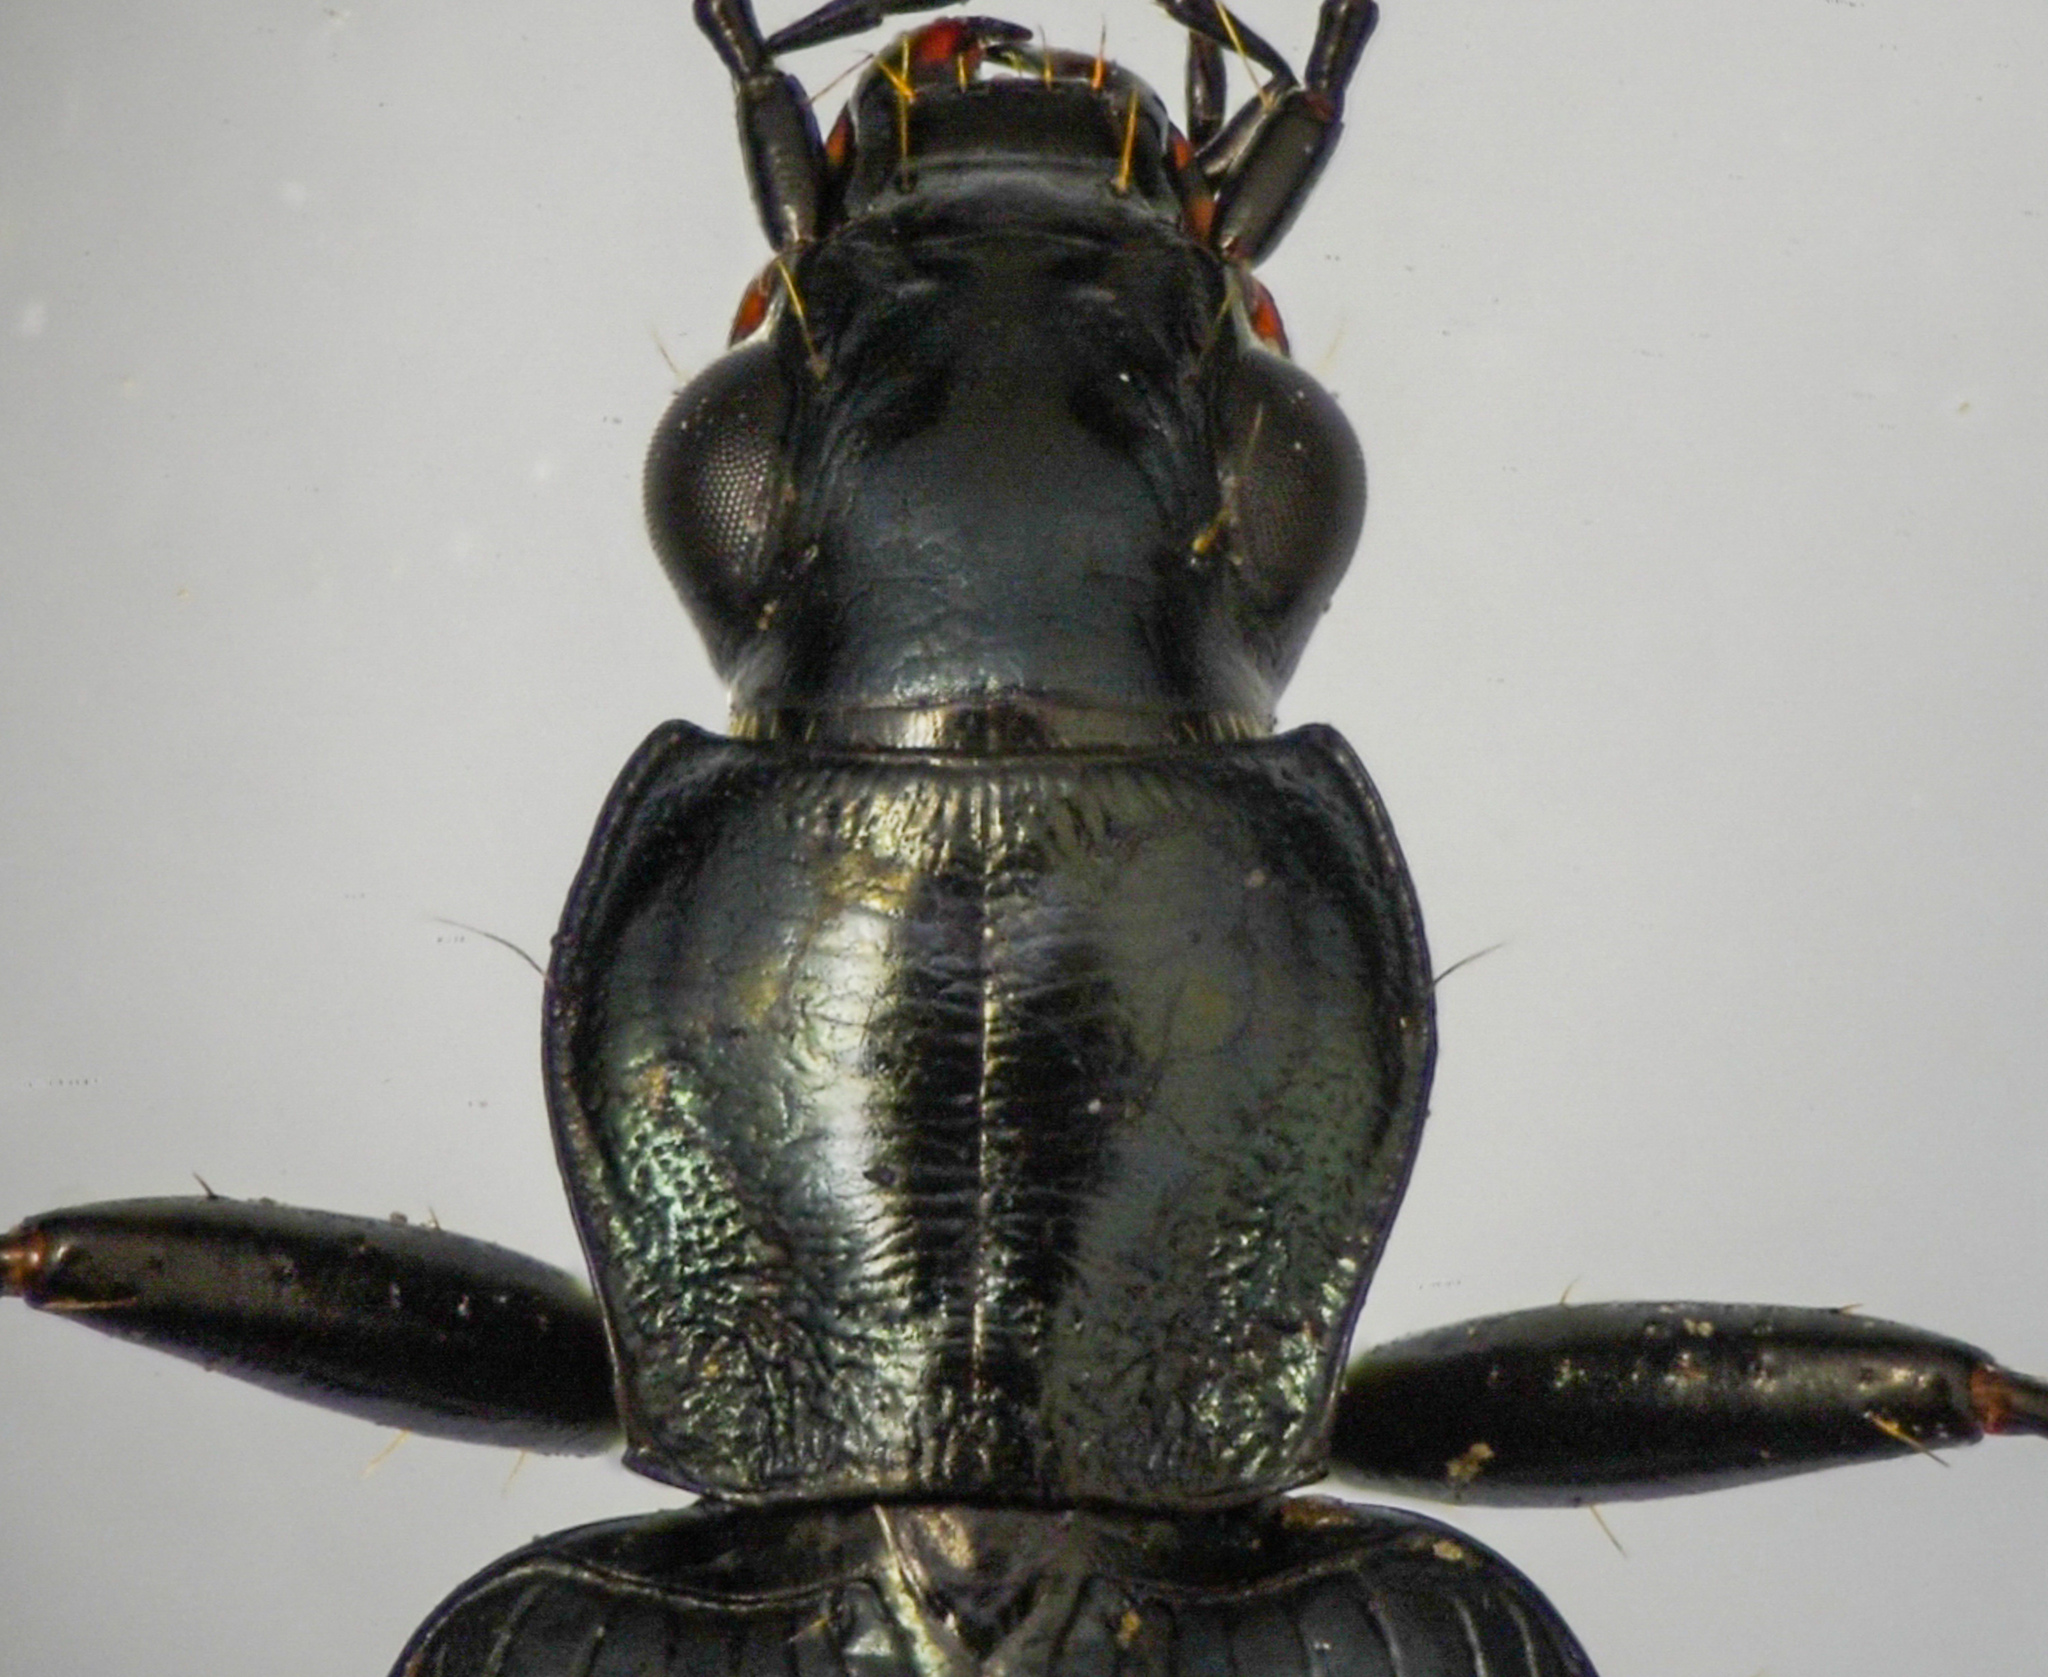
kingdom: Animalia
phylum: Arthropoda
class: Insecta
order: Coleoptera
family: Carabidae
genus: Anchomenus
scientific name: Anchomenus funebris
